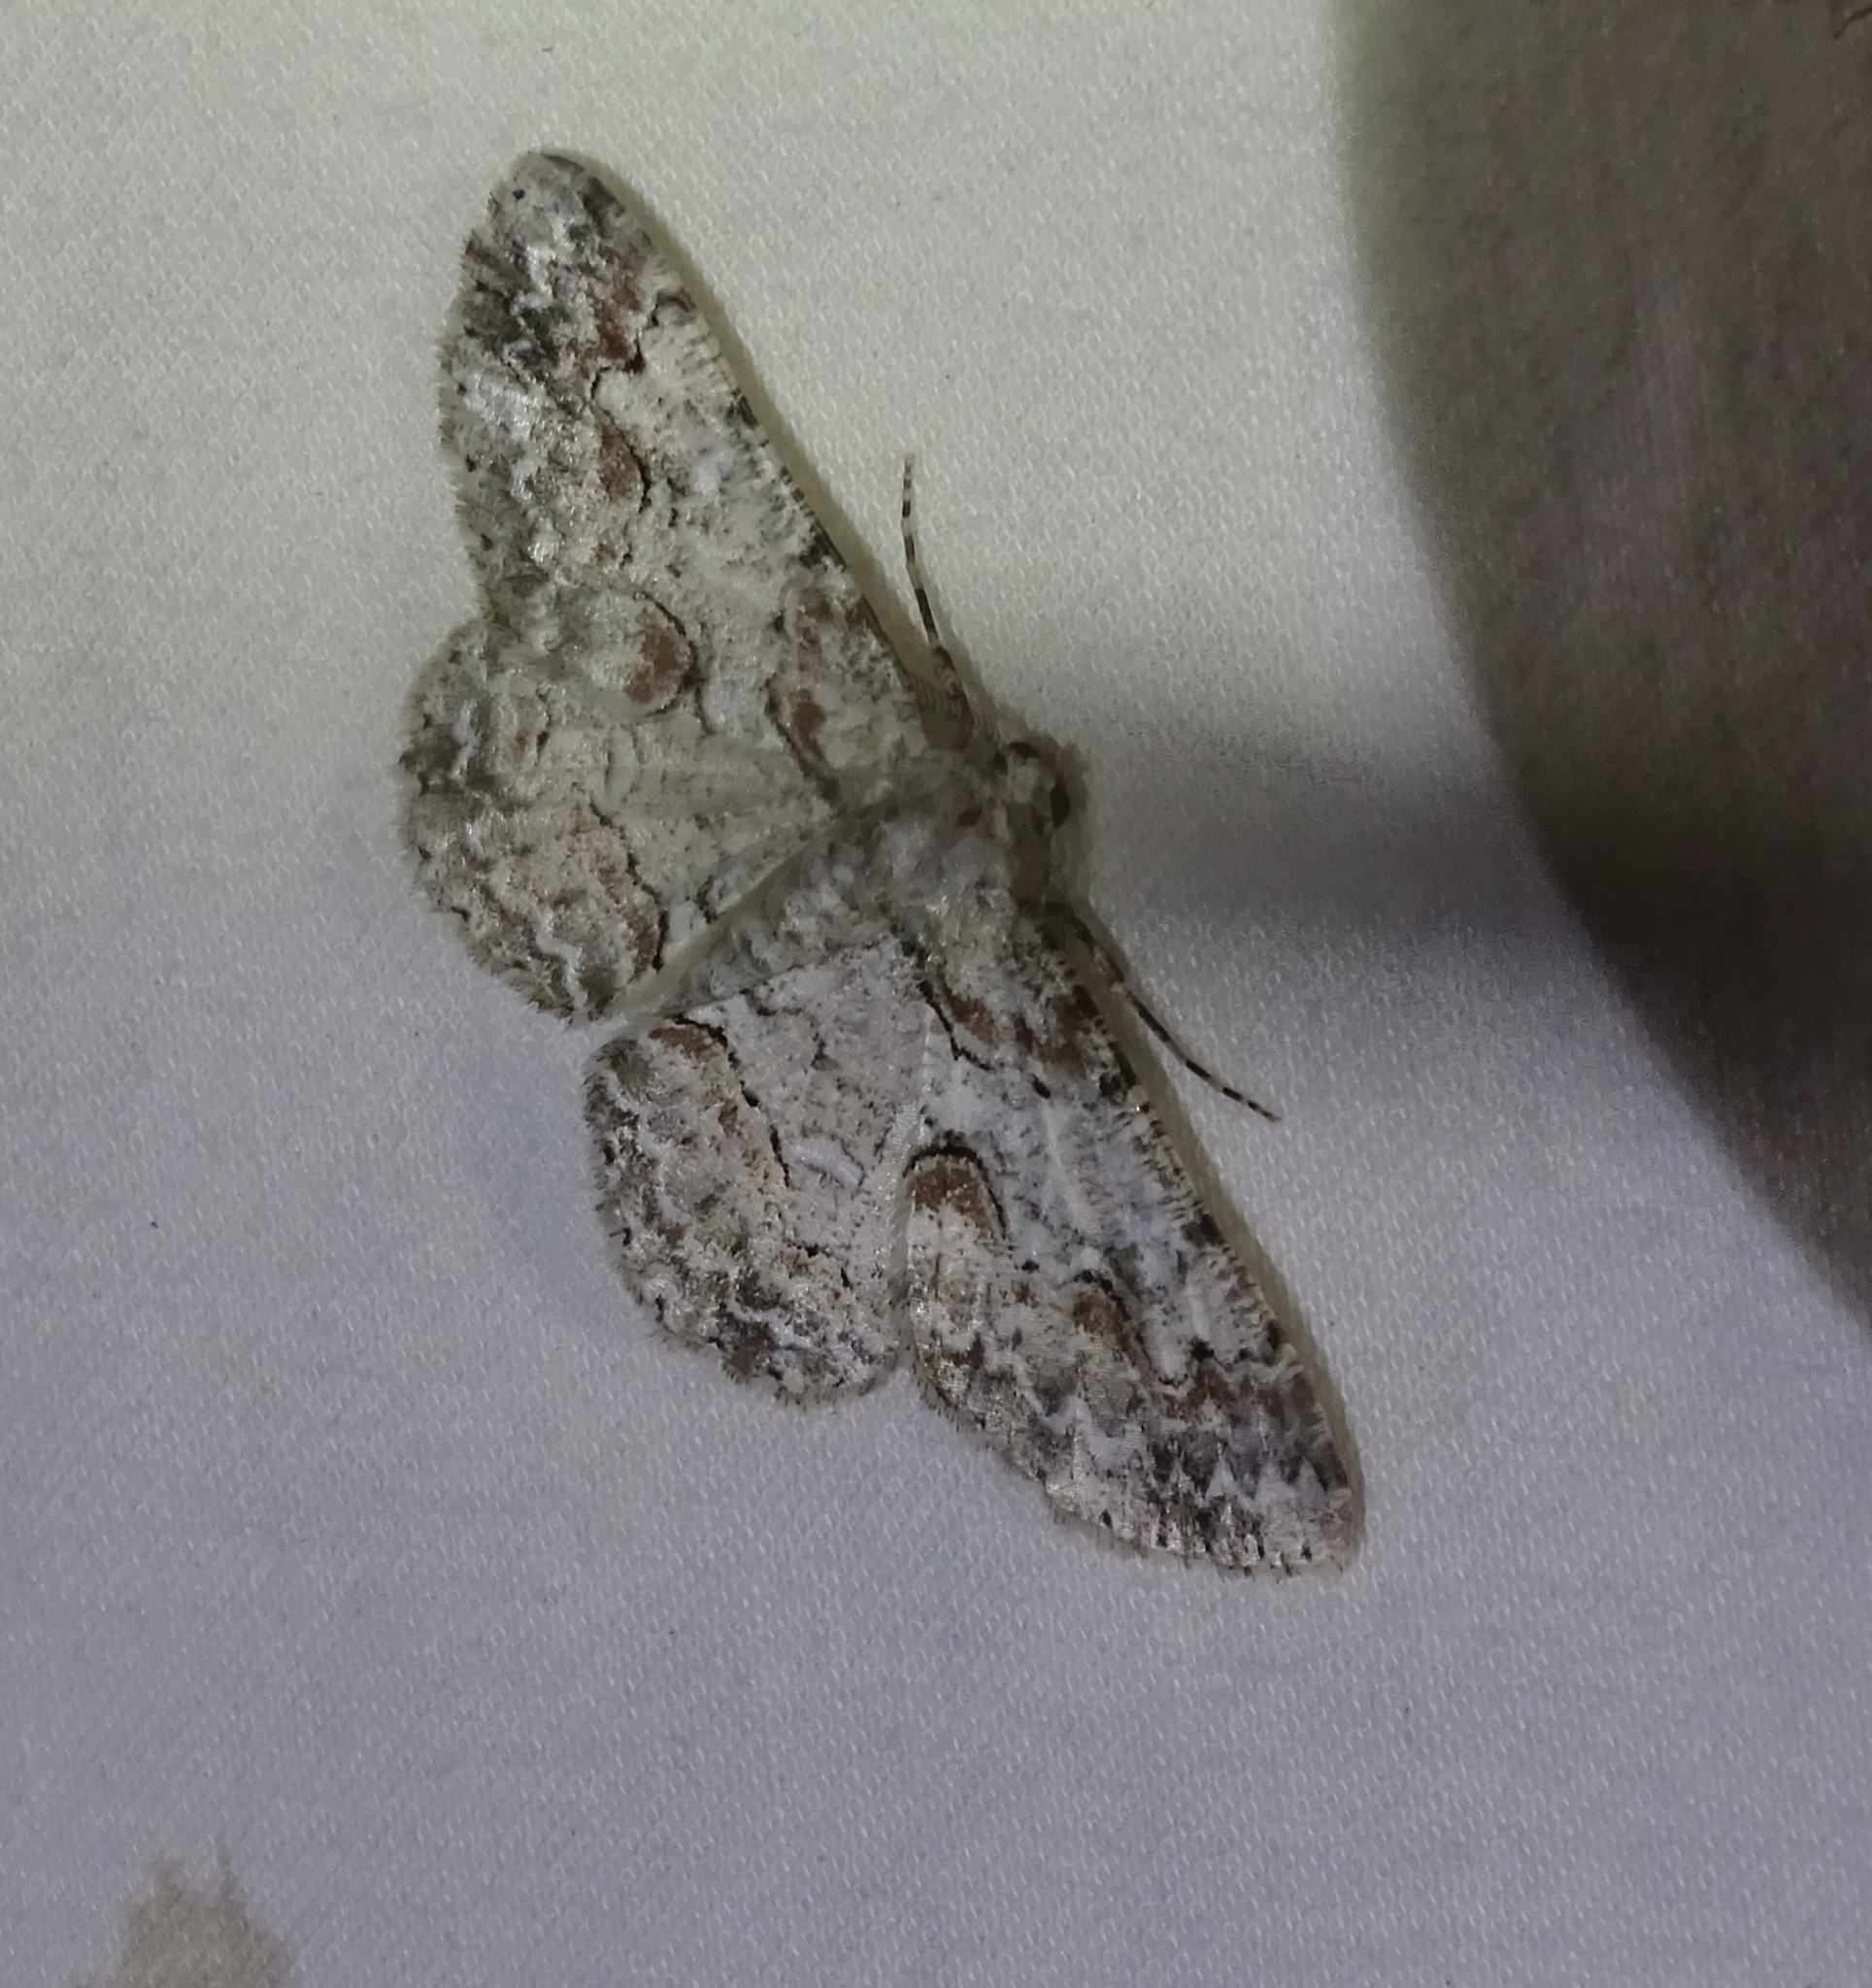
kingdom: Animalia
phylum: Arthropoda
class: Insecta
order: Lepidoptera
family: Geometridae
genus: Iridopsis
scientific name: Iridopsis defectaria
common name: Brown-shaded gray
